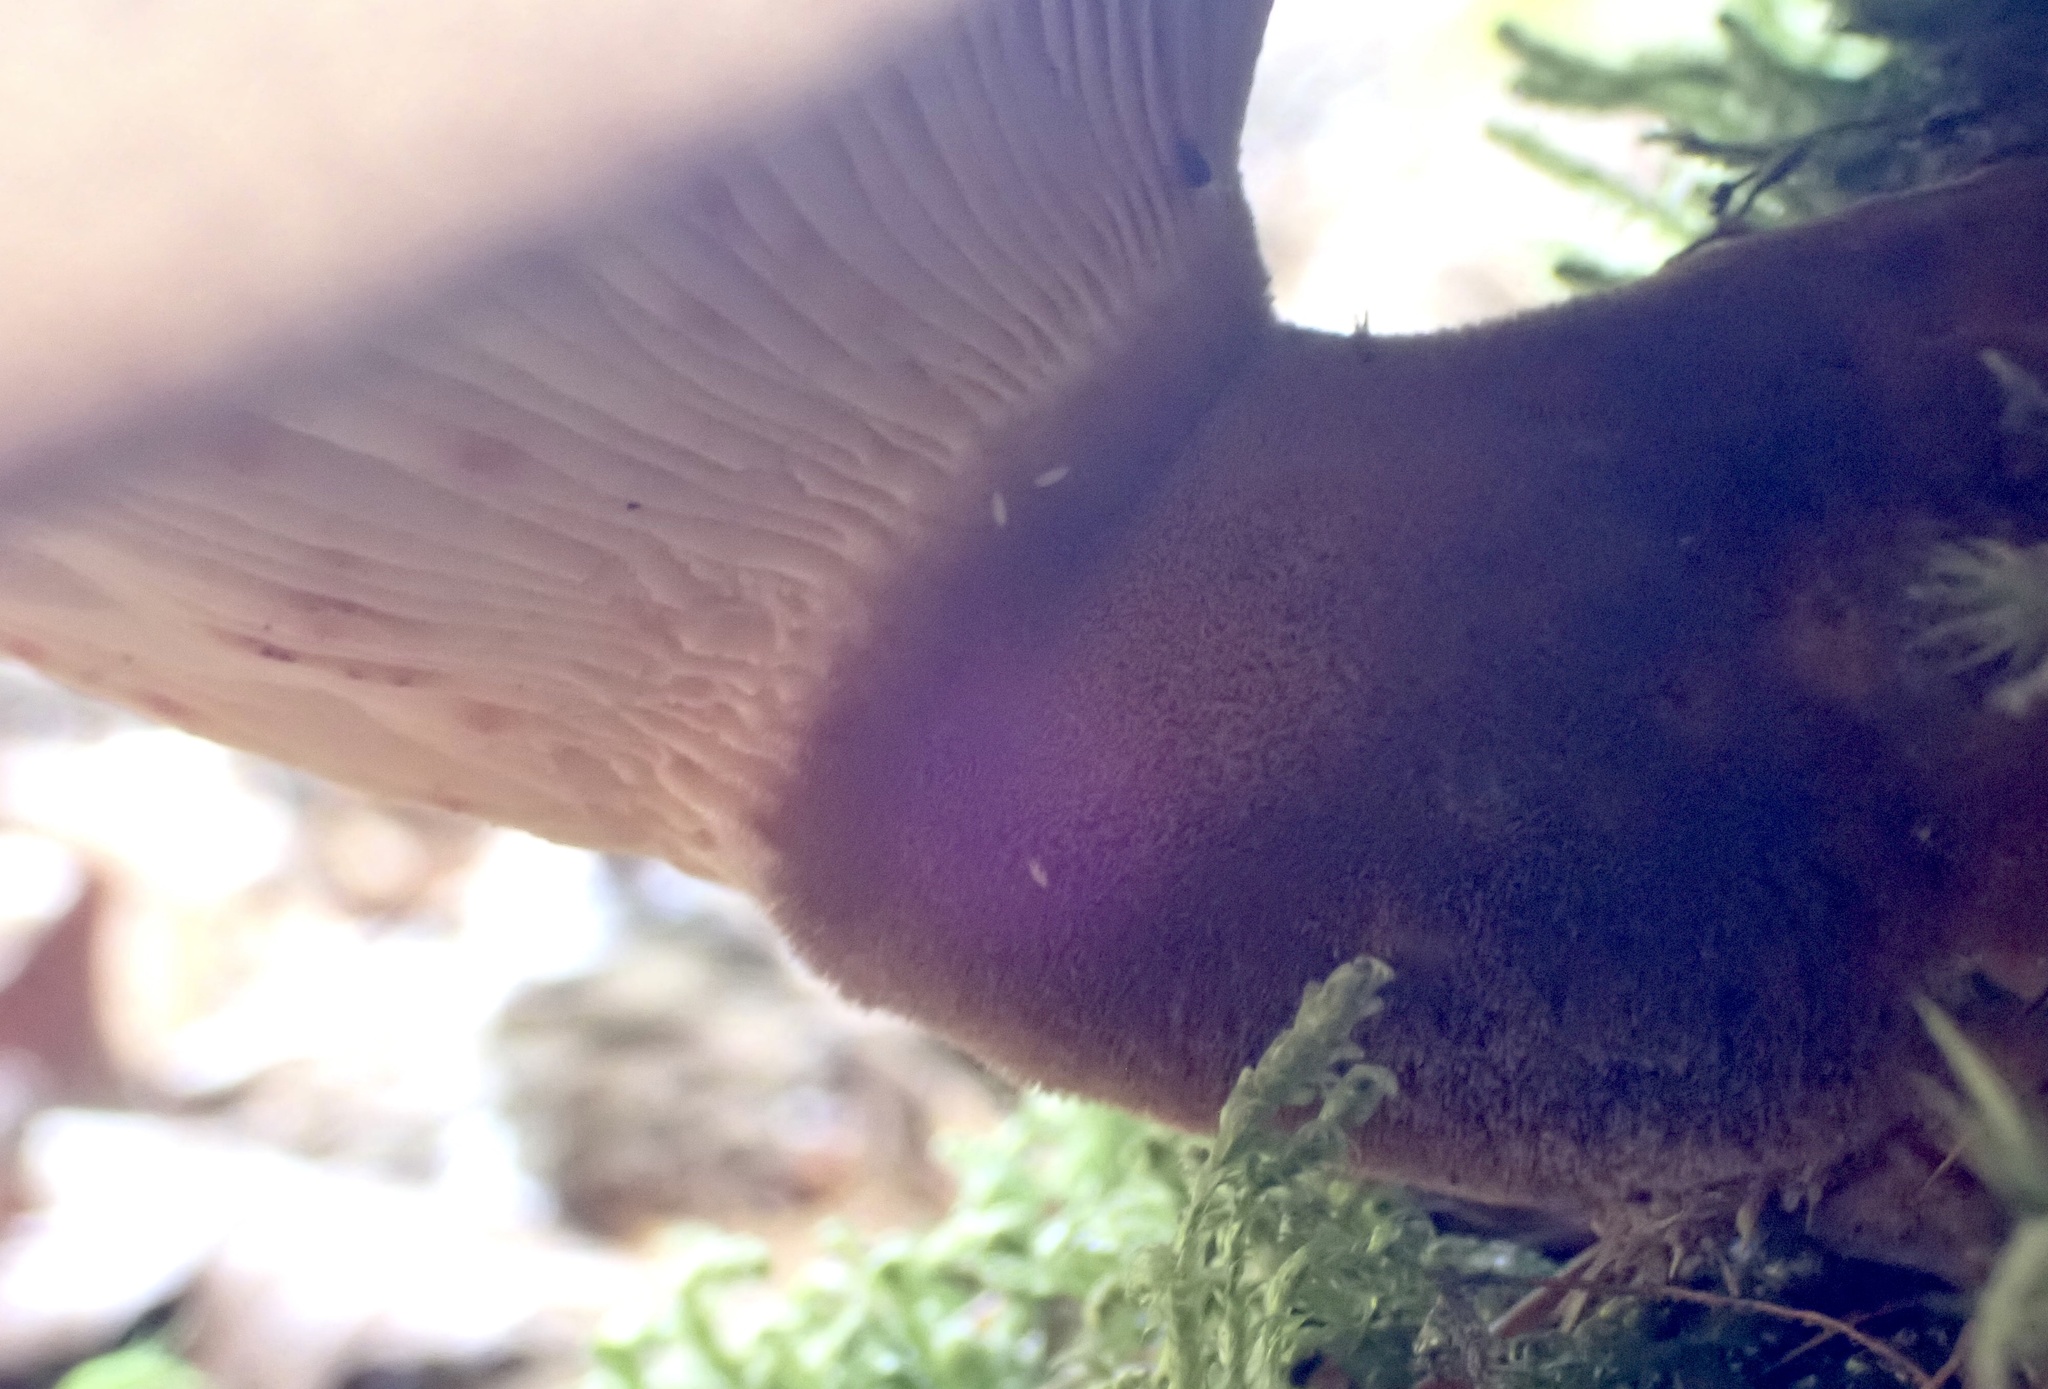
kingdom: Fungi
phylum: Basidiomycota
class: Agaricomycetes
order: Boletales
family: Tapinellaceae
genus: Tapinella
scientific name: Tapinella atrotomentosa
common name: Velvet rollrim
